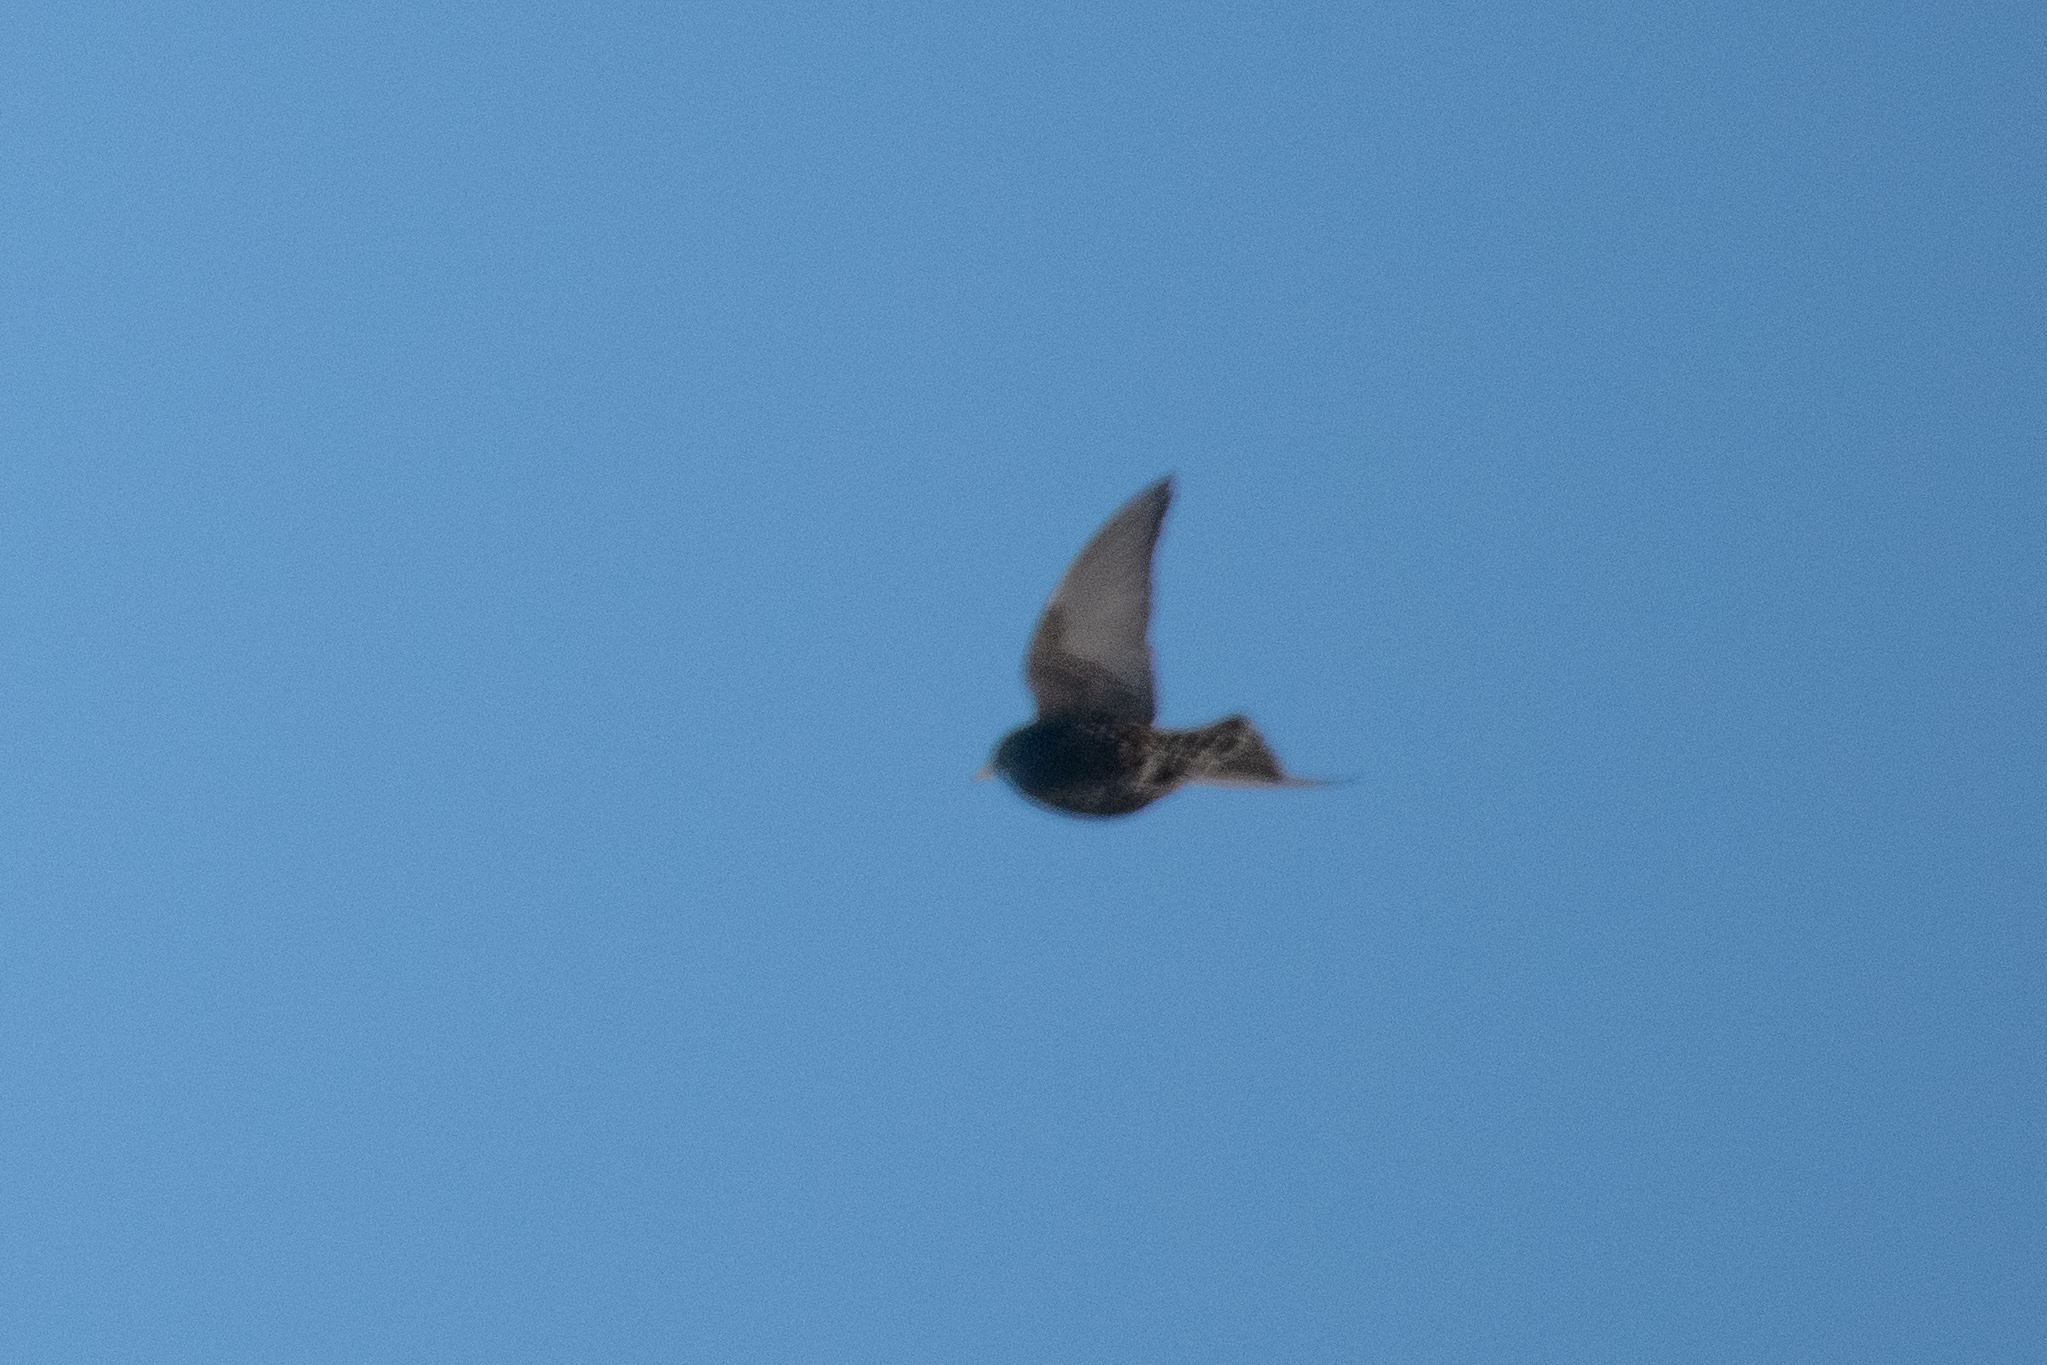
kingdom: Animalia
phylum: Chordata
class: Aves
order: Passeriformes
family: Sturnidae
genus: Sturnus
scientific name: Sturnus vulgaris
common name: Common starling
